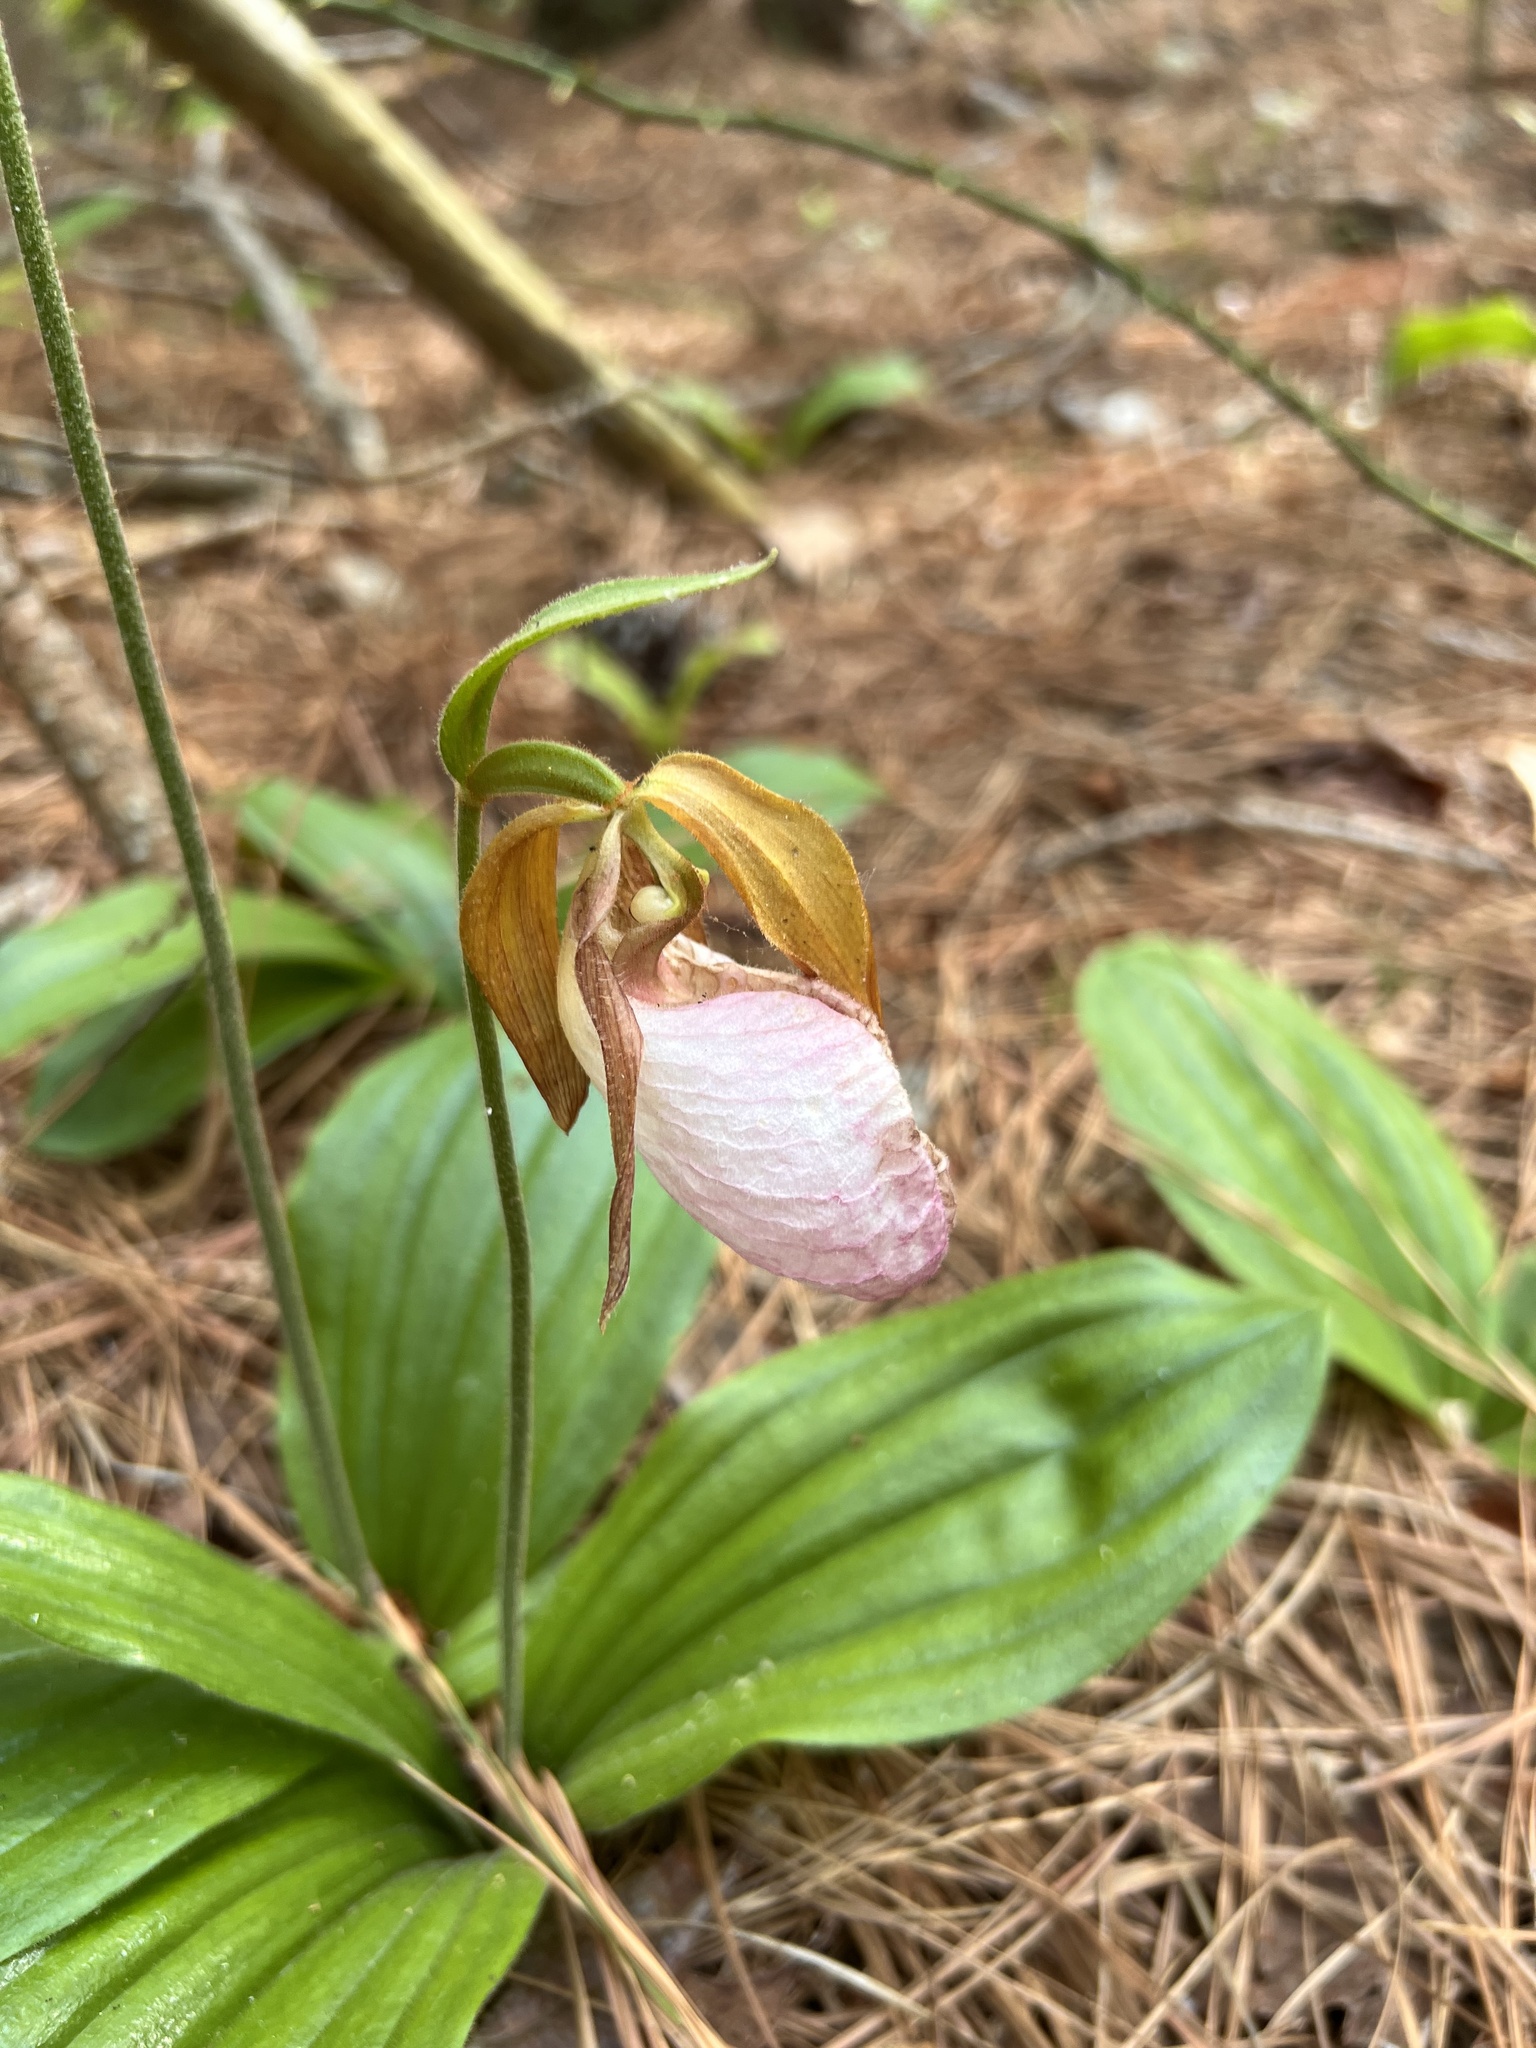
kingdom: Plantae
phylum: Tracheophyta
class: Liliopsida
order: Asparagales
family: Orchidaceae
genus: Cypripedium
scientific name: Cypripedium acaule
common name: Pink lady's-slipper
